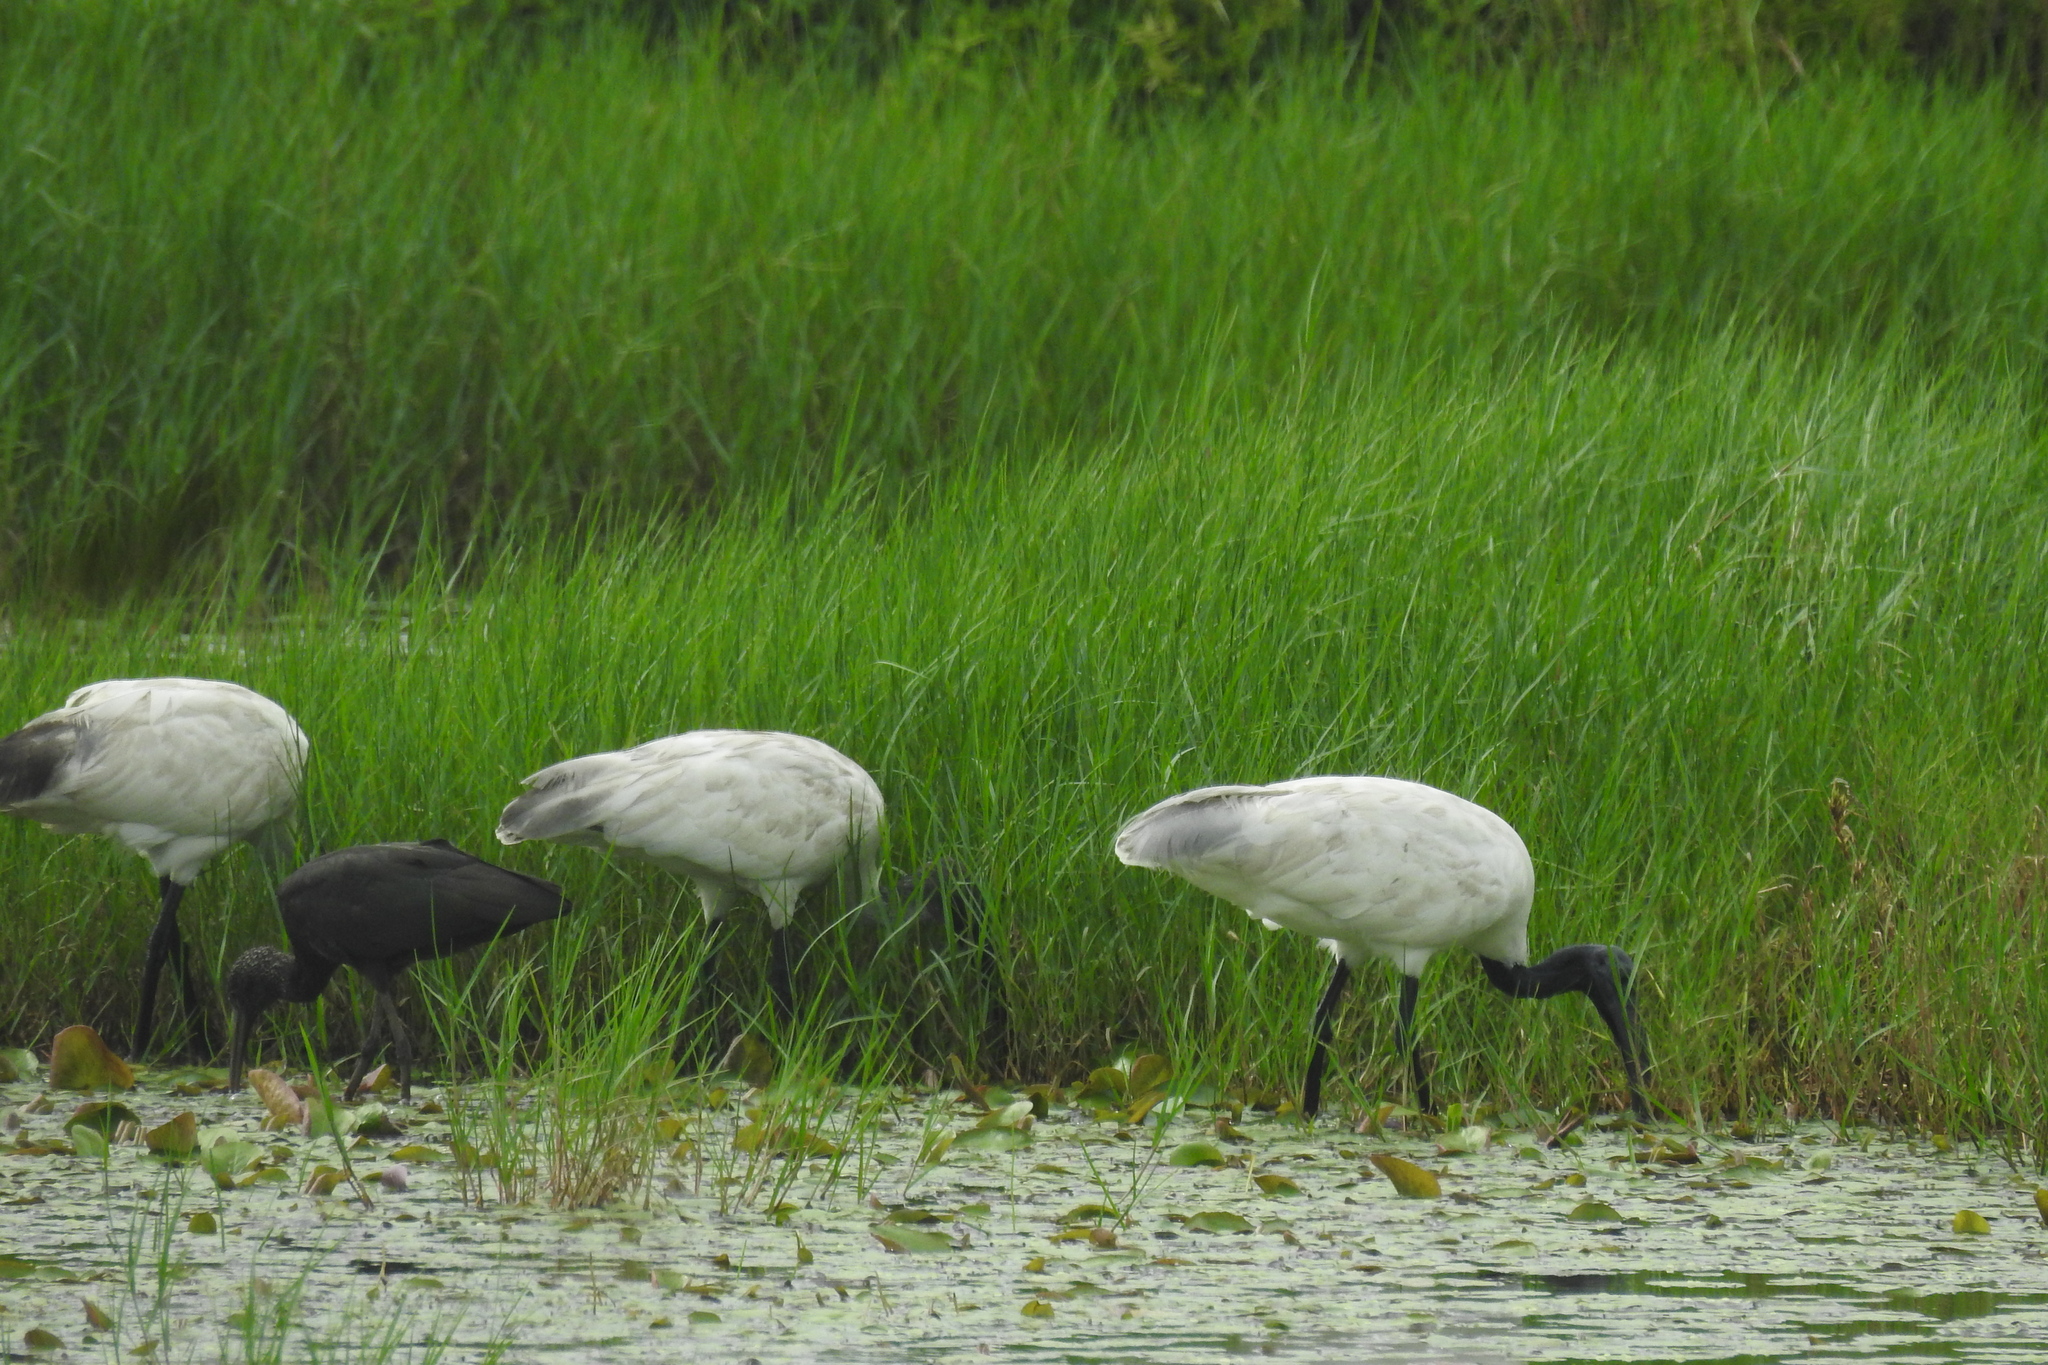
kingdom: Animalia
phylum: Chordata
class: Aves
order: Pelecaniformes
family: Threskiornithidae
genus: Threskiornis
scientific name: Threskiornis melanocephalus
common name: Black-headed ibis
